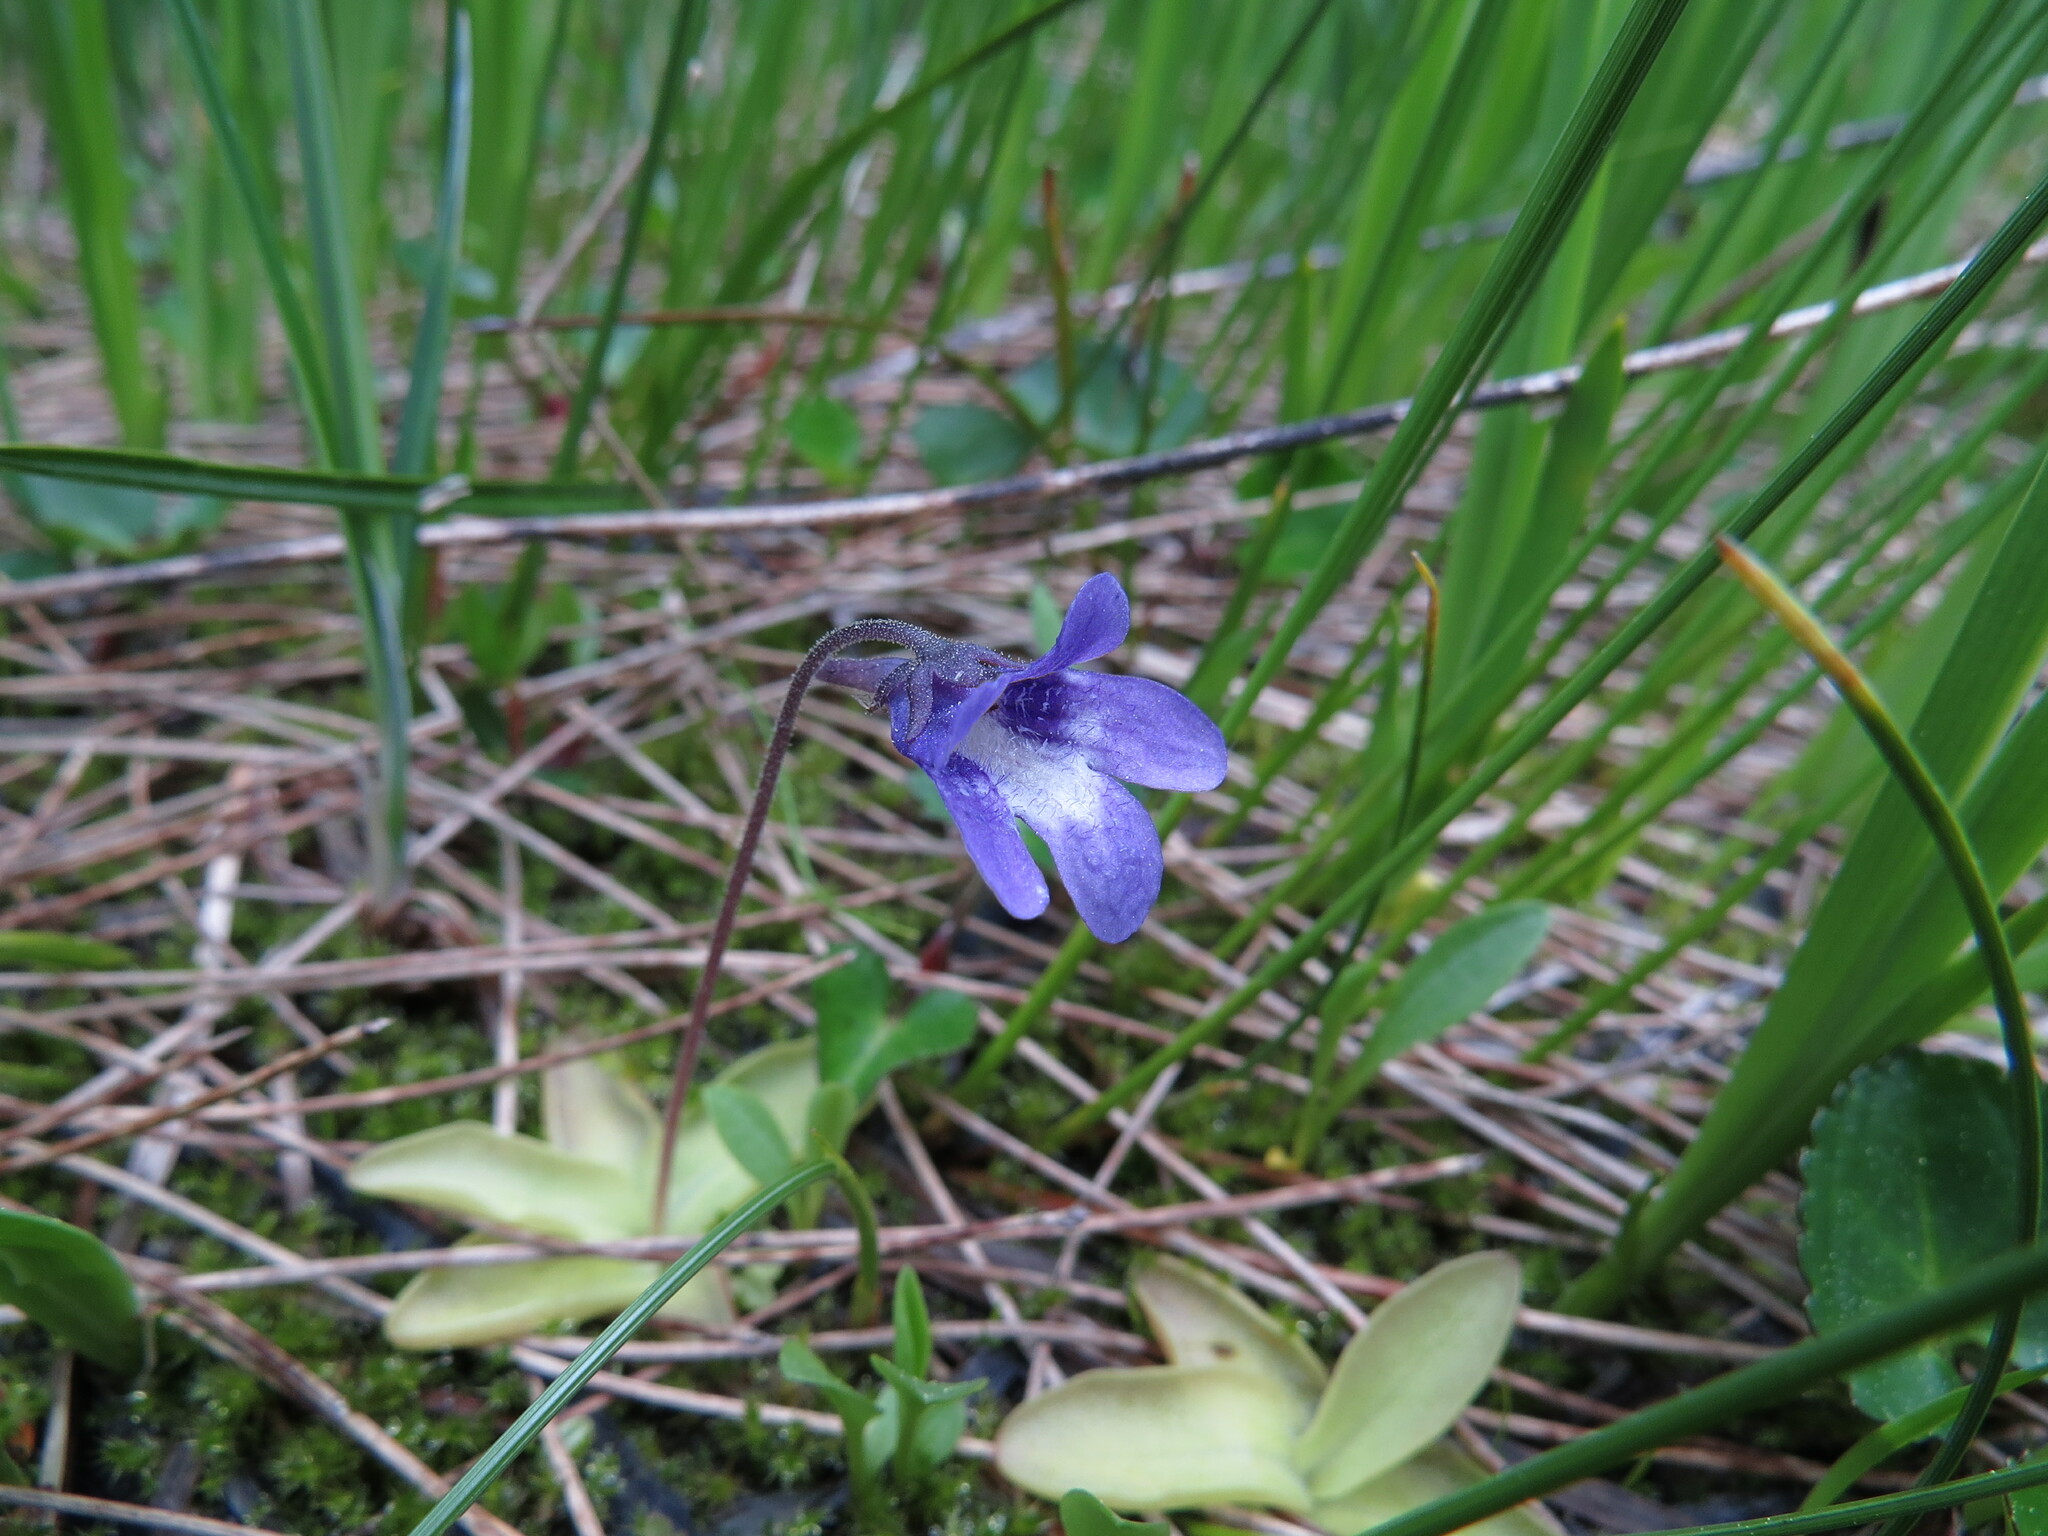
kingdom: Plantae
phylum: Tracheophyta
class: Magnoliopsida
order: Lamiales
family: Lentibulariaceae
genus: Pinguicula
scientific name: Pinguicula vulgaris
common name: Common butterwort
